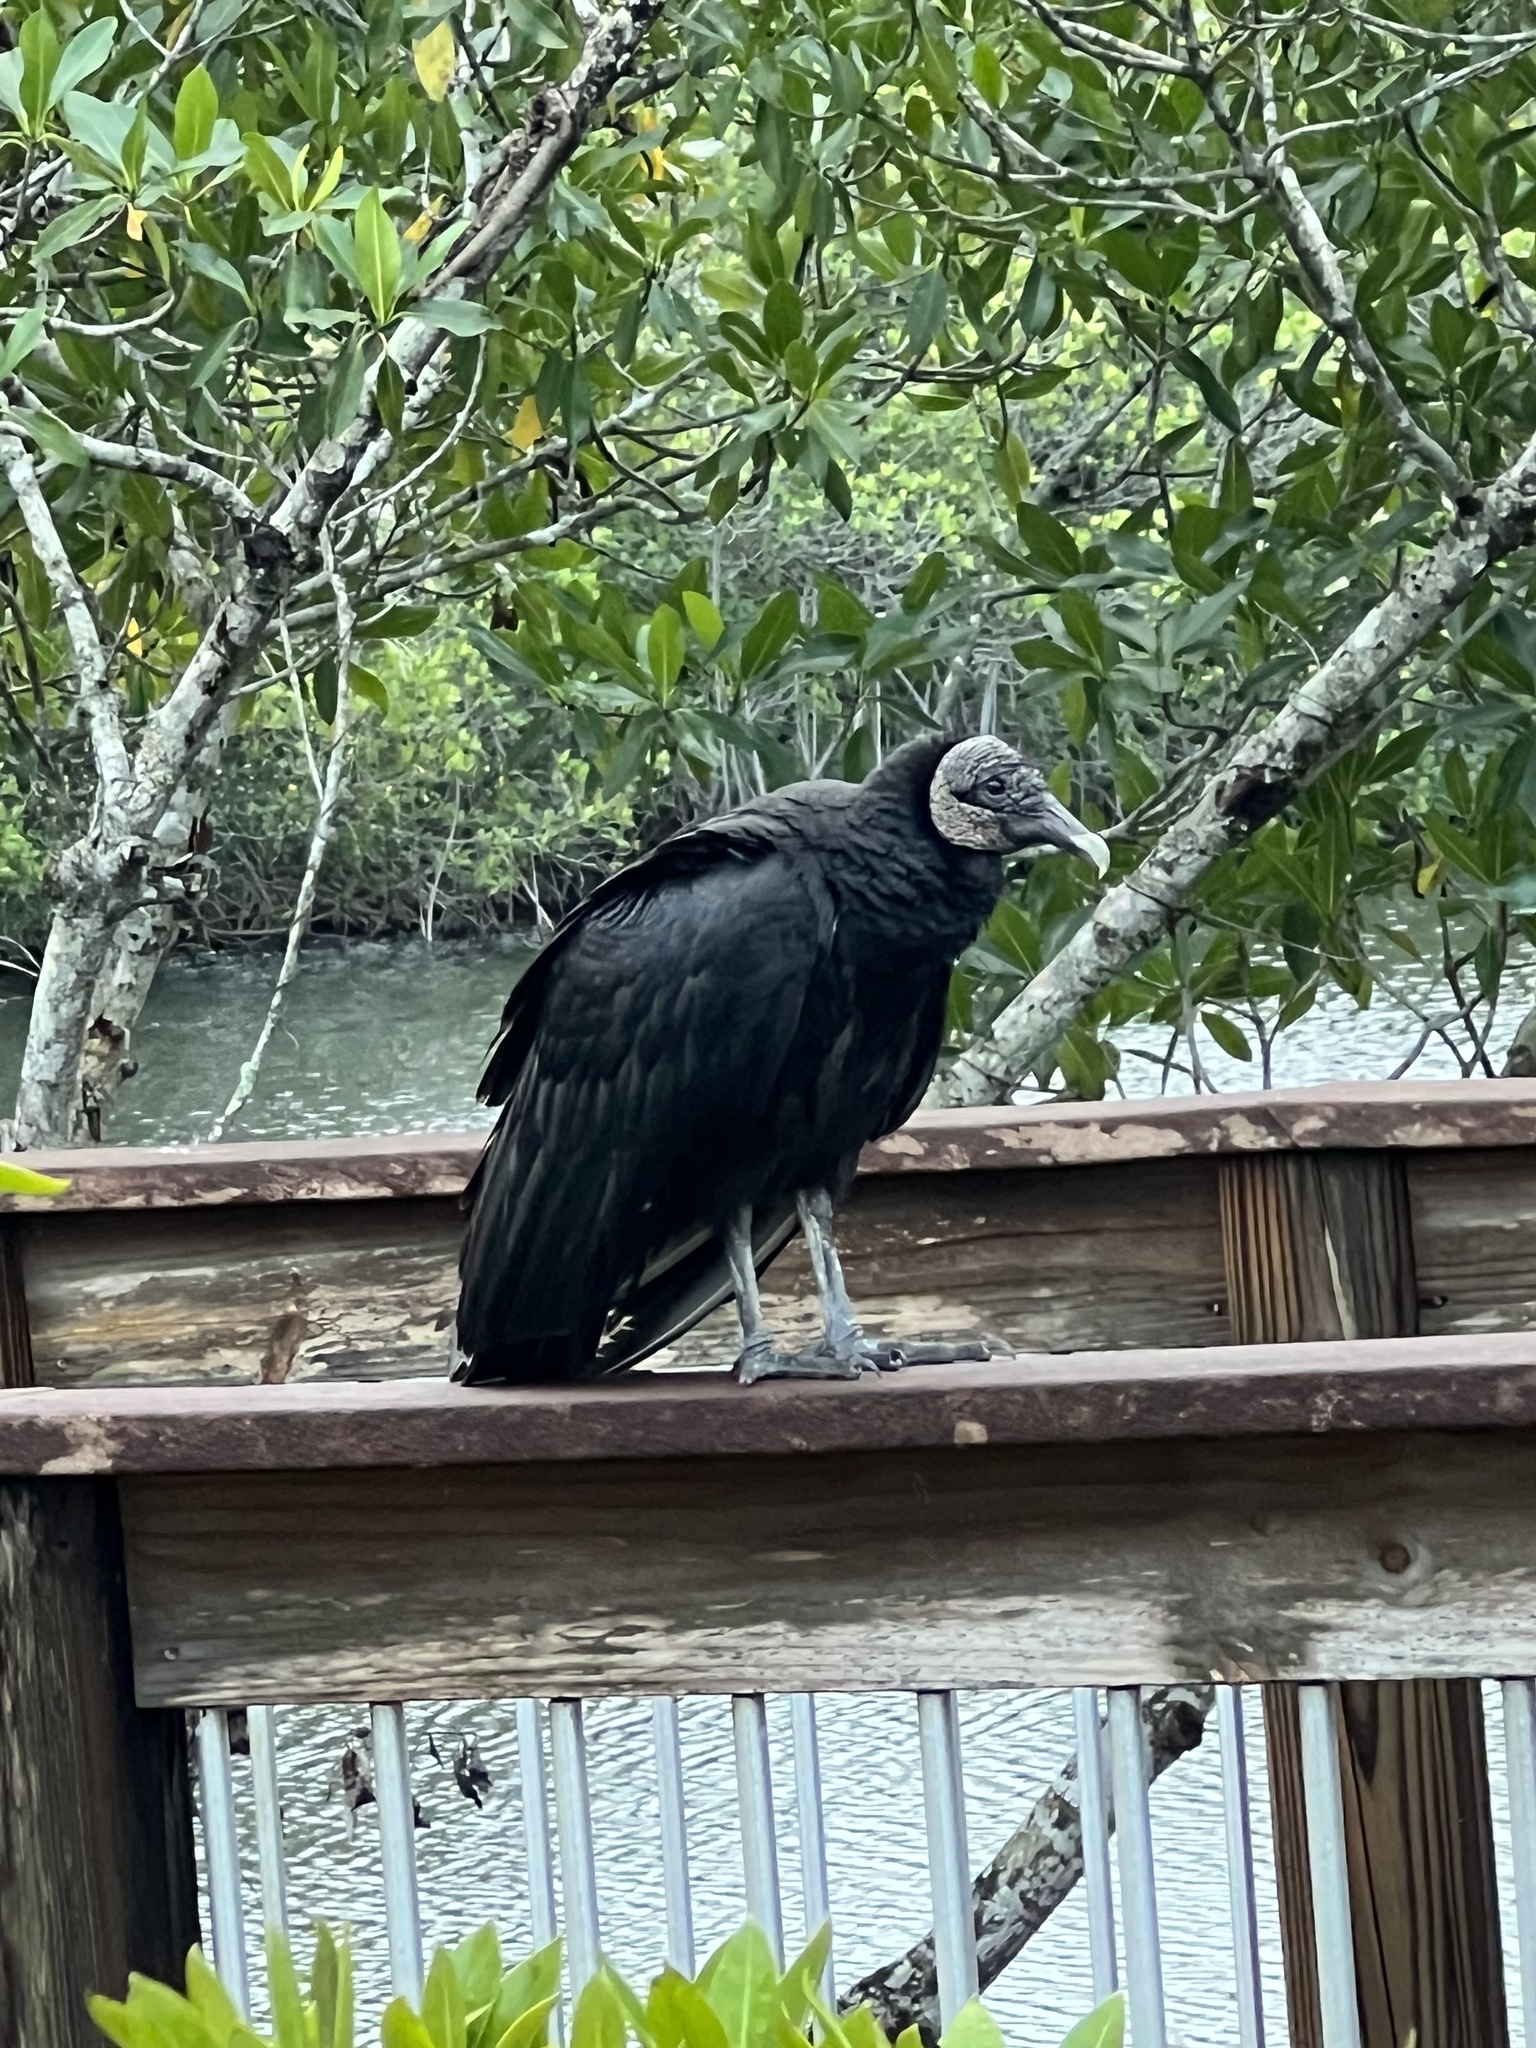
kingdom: Animalia
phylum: Chordata
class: Aves
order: Accipitriformes
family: Cathartidae
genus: Coragyps
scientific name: Coragyps atratus
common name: Black vulture
